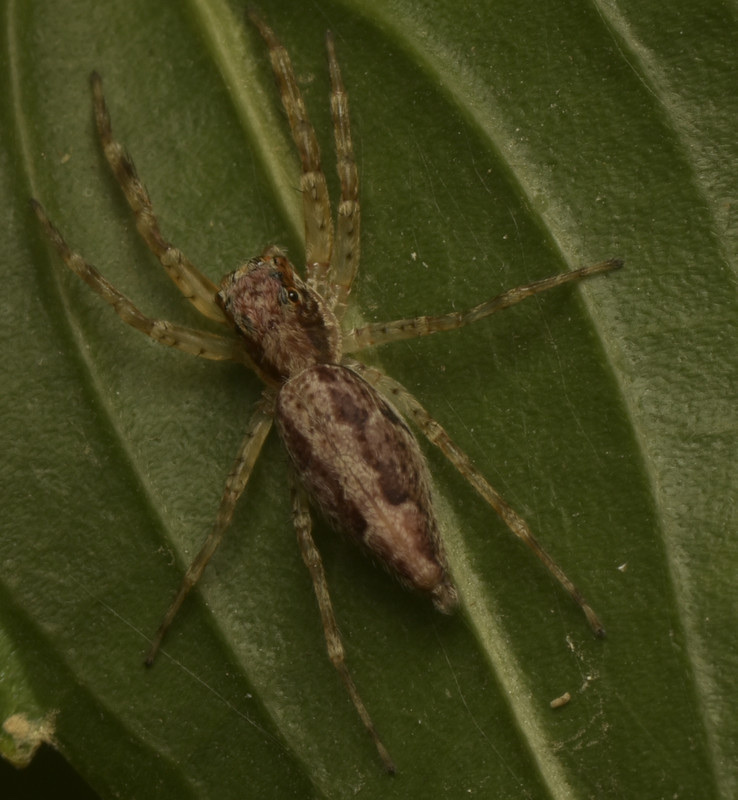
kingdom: Animalia
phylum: Arthropoda
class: Arachnida
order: Araneae
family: Salticidae
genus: Helpis
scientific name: Helpis minitabunda
